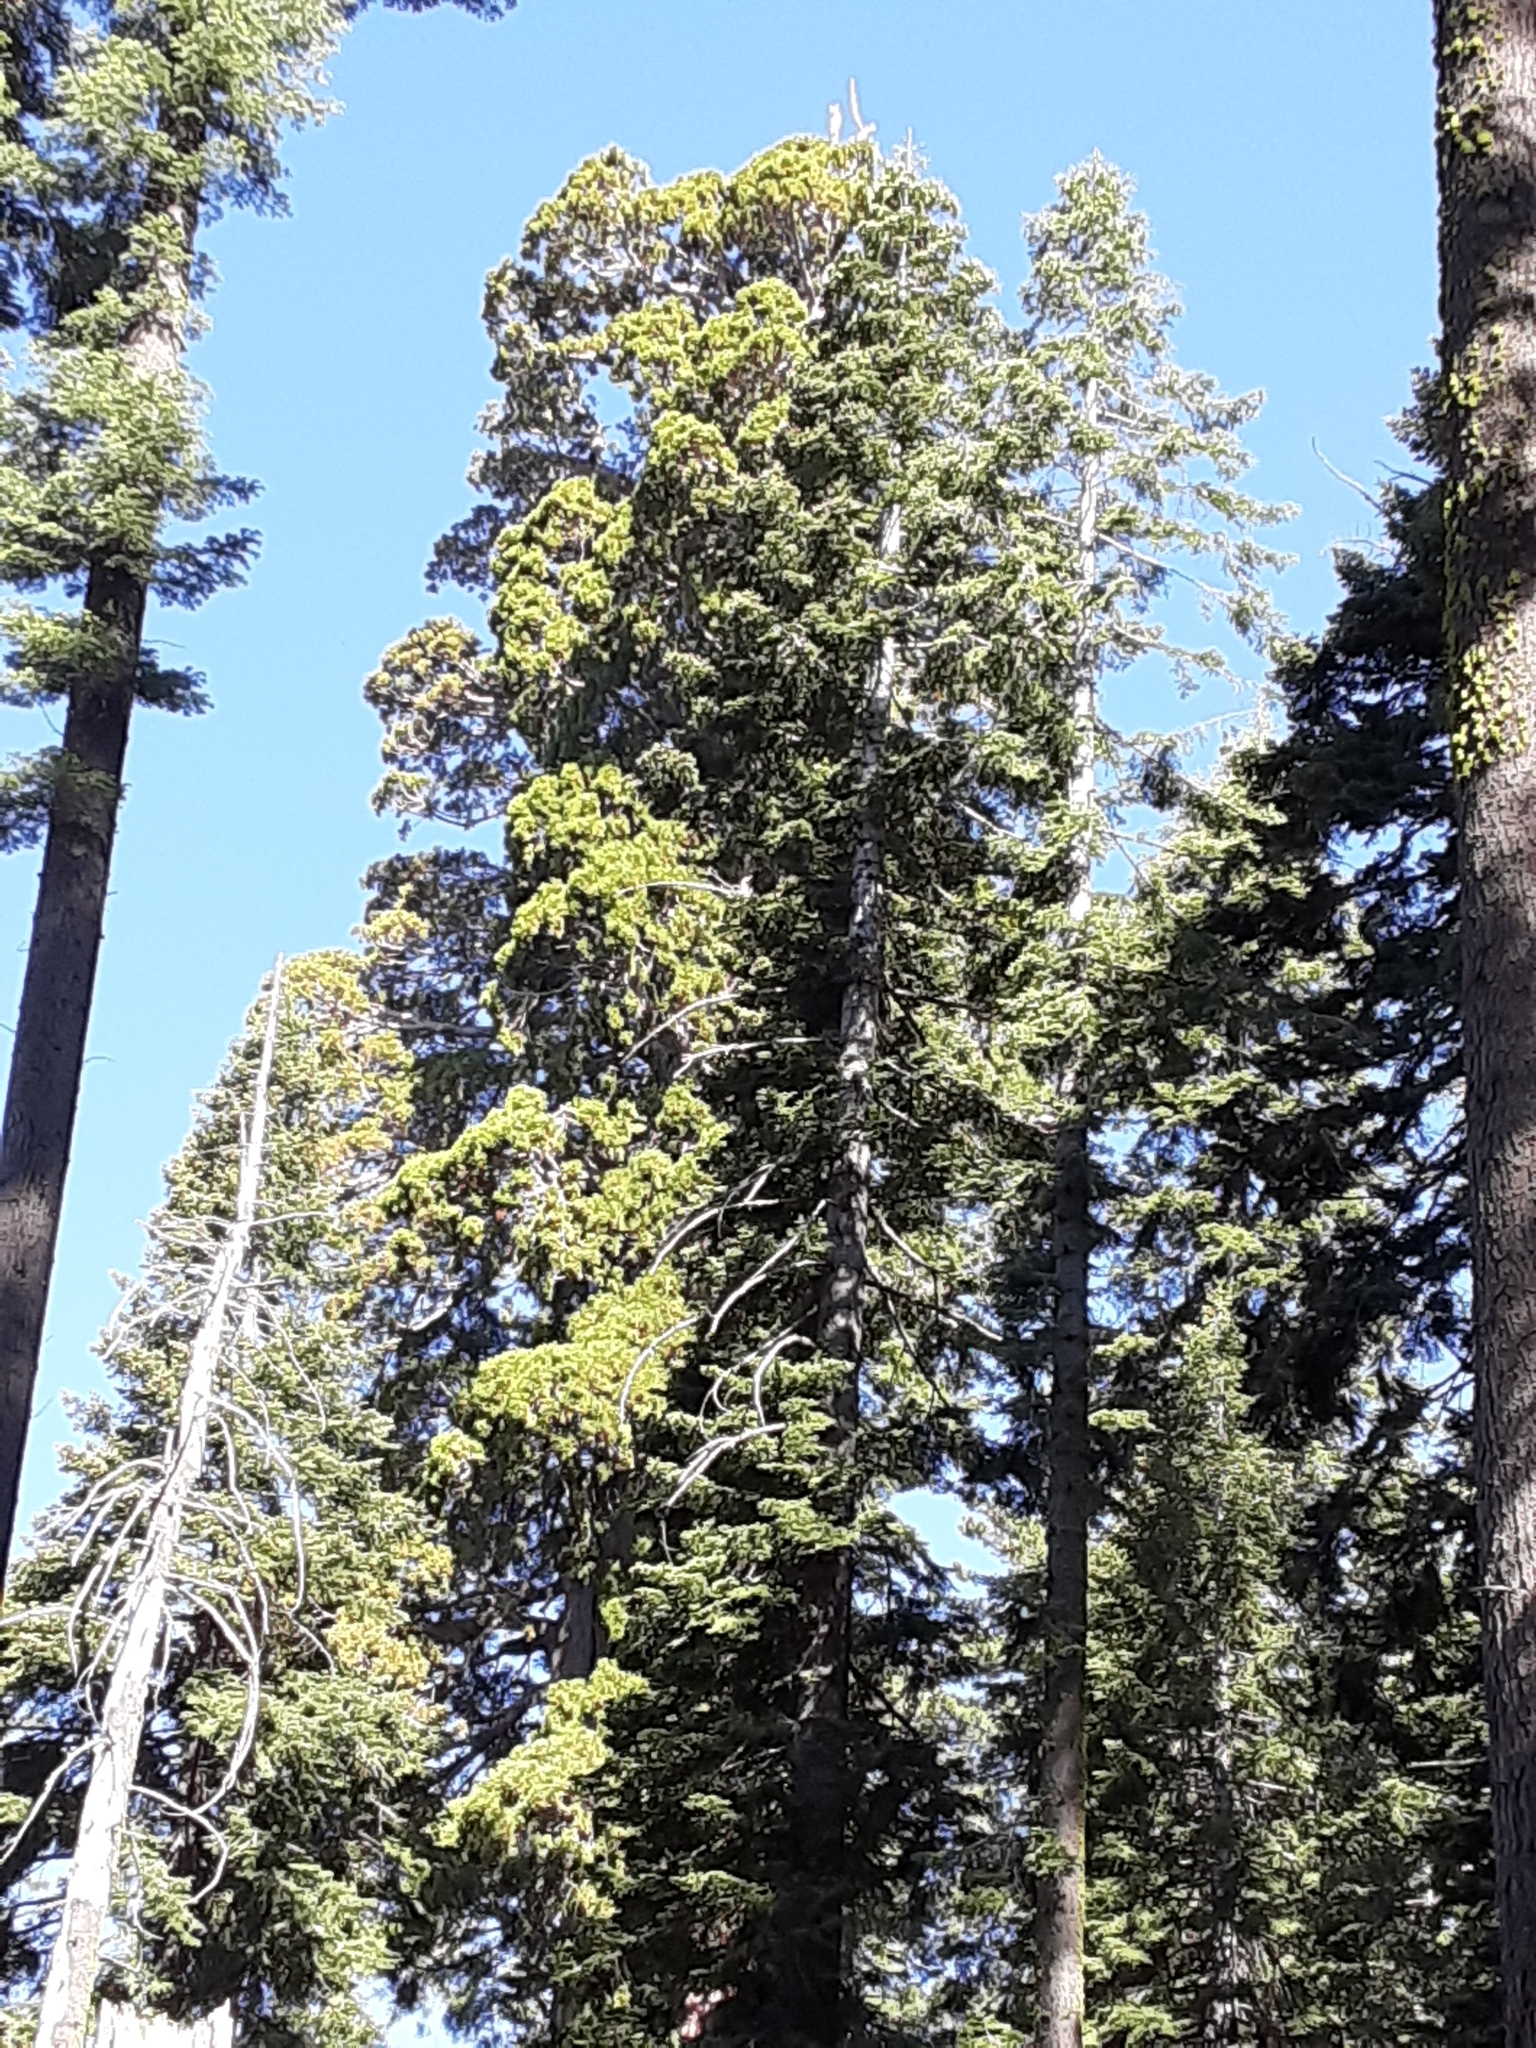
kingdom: Plantae
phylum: Tracheophyta
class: Pinopsida
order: Pinales
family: Cupressaceae
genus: Sequoiadendron
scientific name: Sequoiadendron giganteum
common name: Wellingtonia
